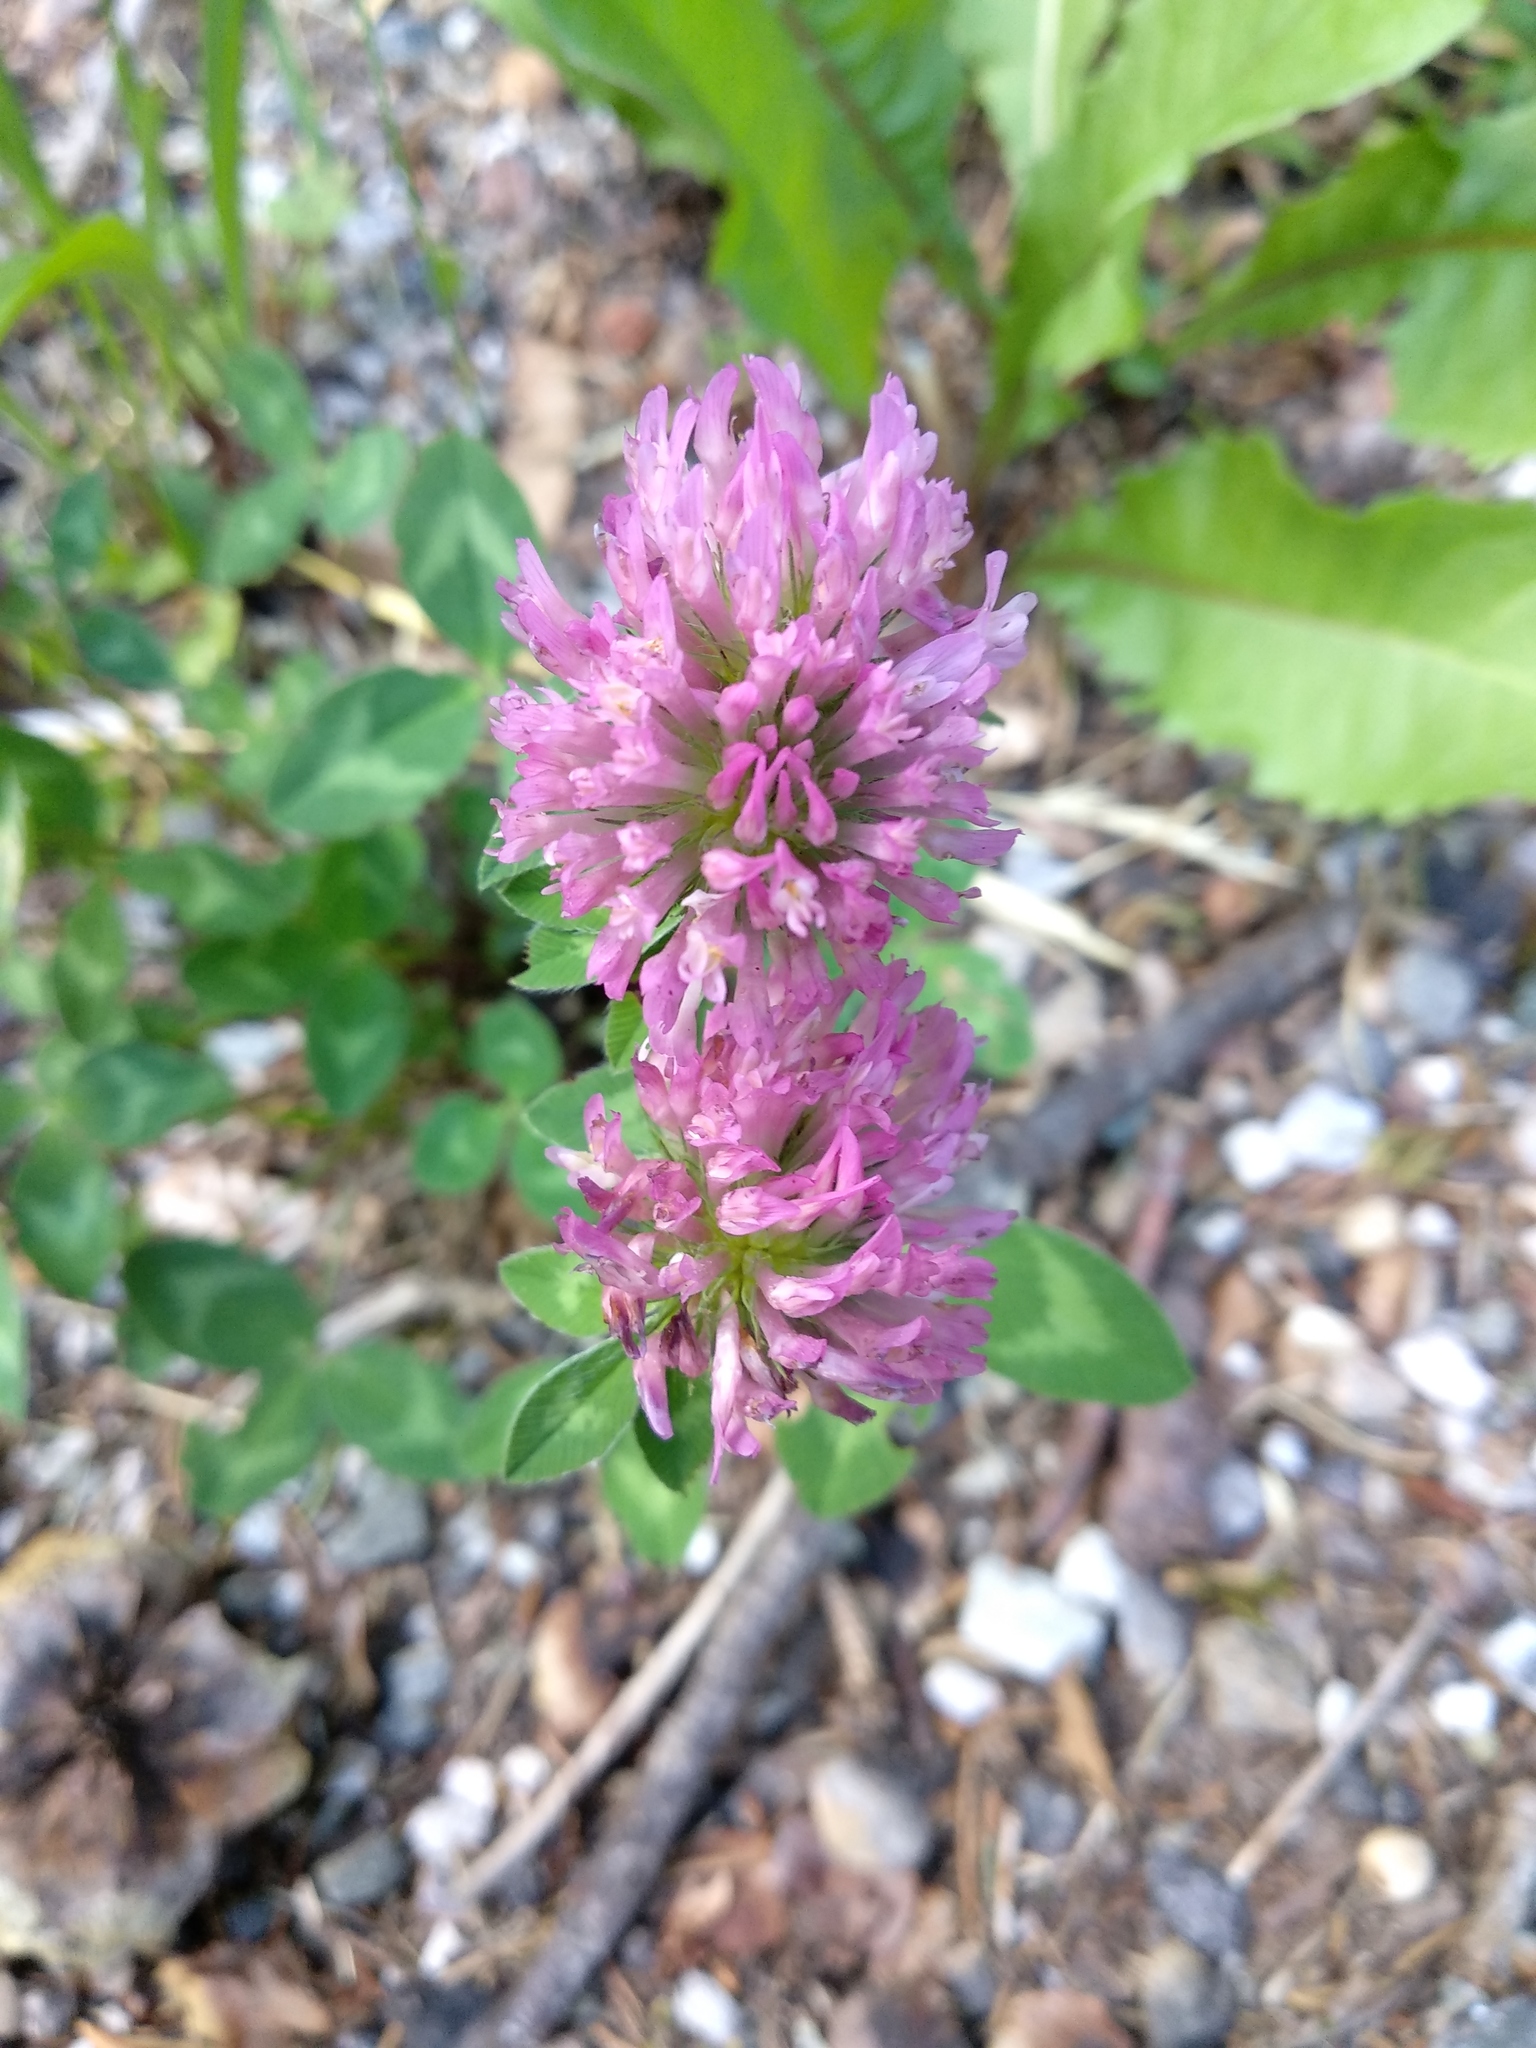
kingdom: Plantae
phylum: Tracheophyta
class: Magnoliopsida
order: Fabales
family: Fabaceae
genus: Trifolium
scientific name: Trifolium pratense
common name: Red clover
